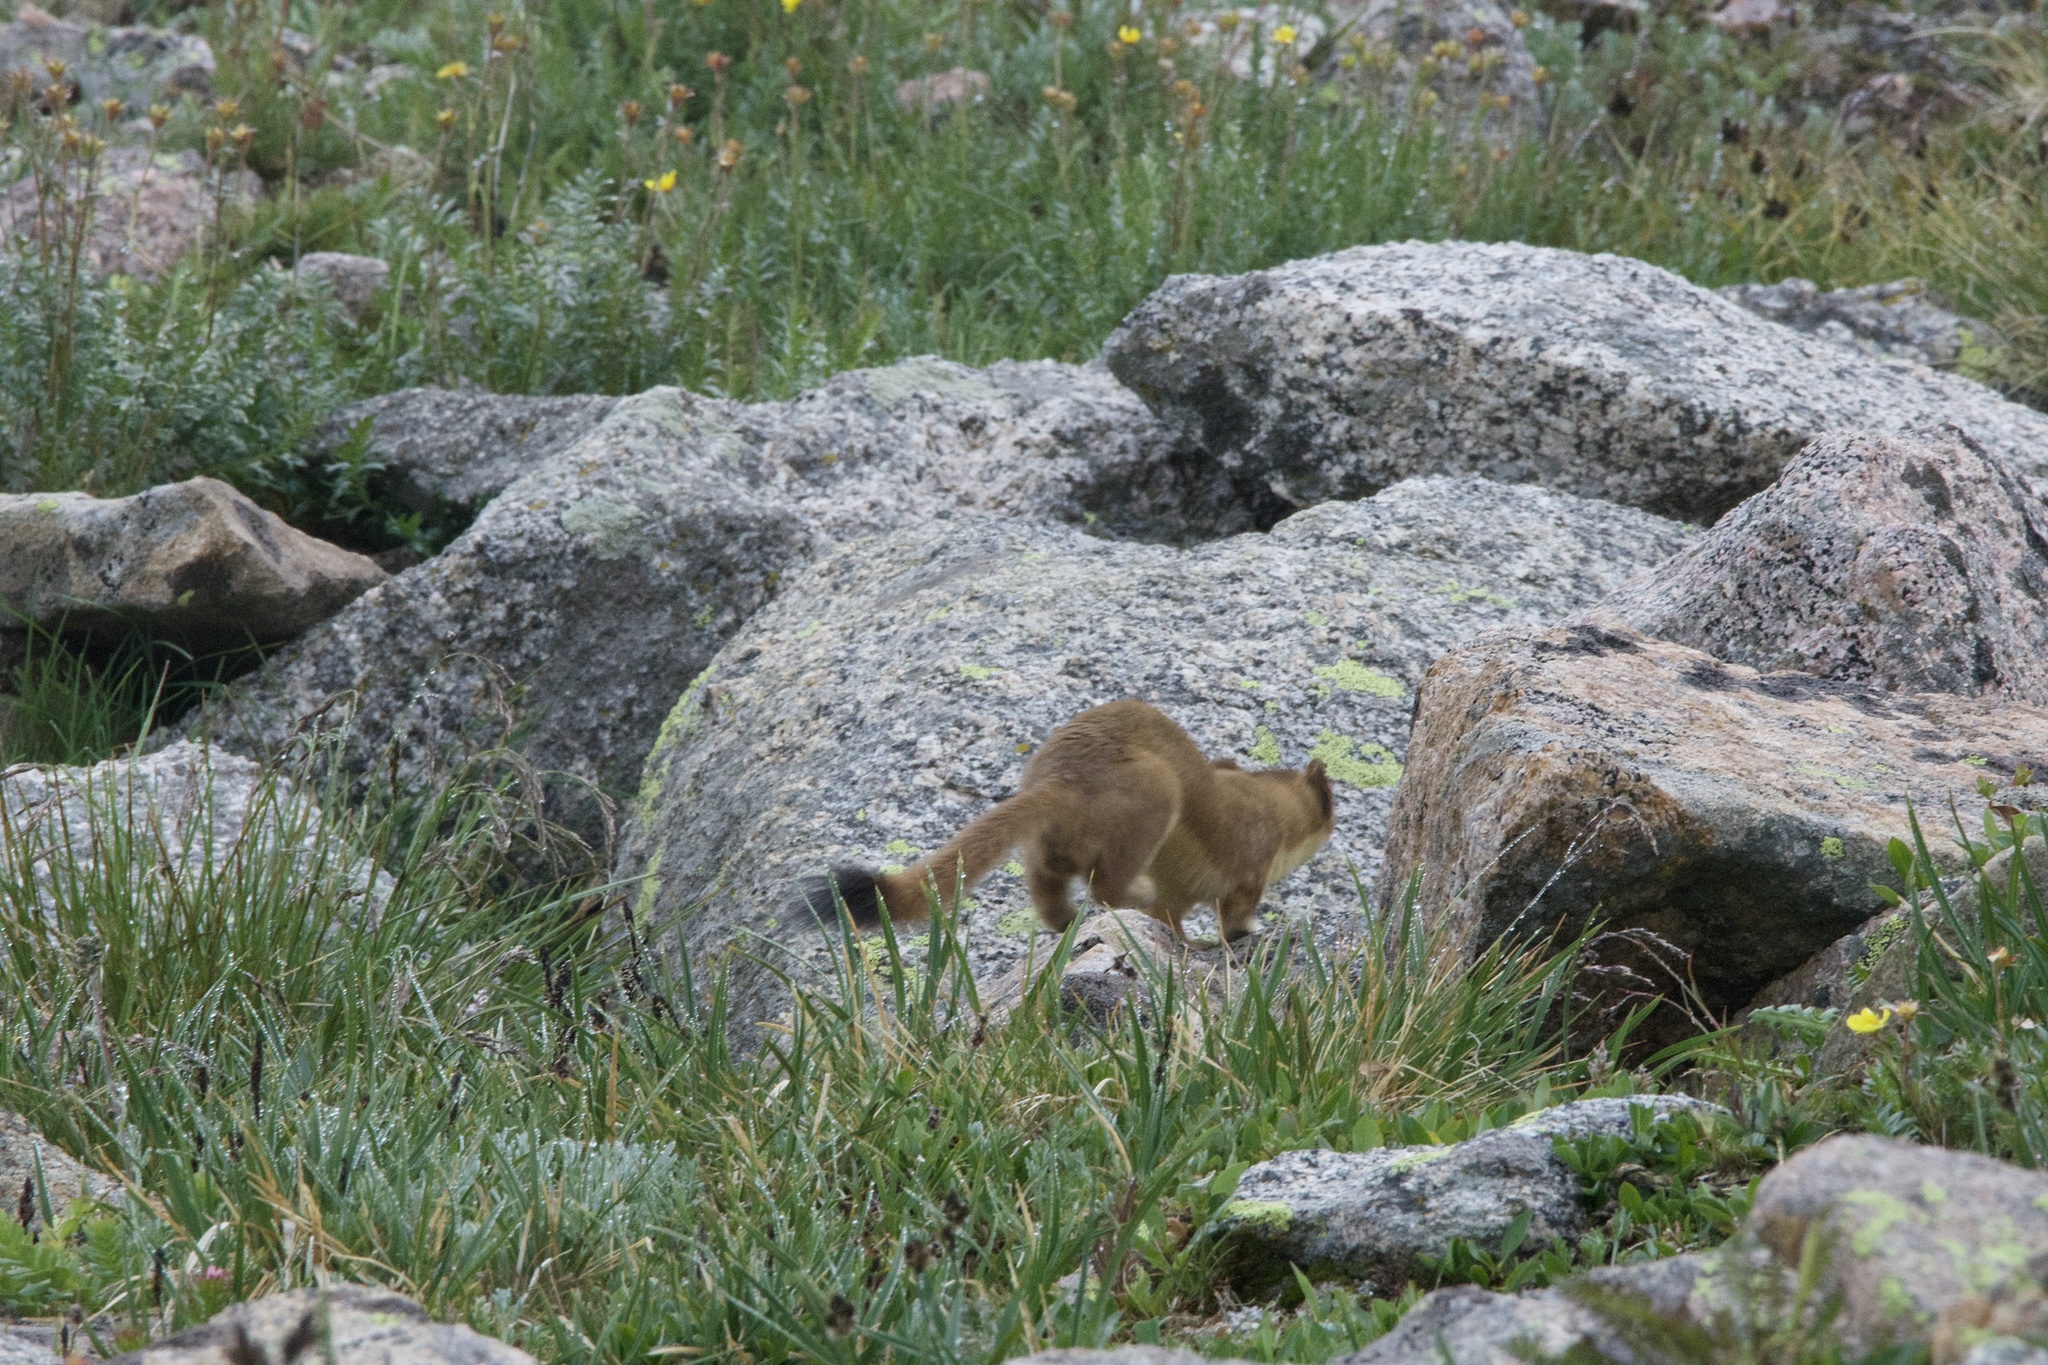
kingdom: Animalia
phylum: Chordata
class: Mammalia
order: Carnivora
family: Mustelidae
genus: Mustela
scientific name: Mustela
